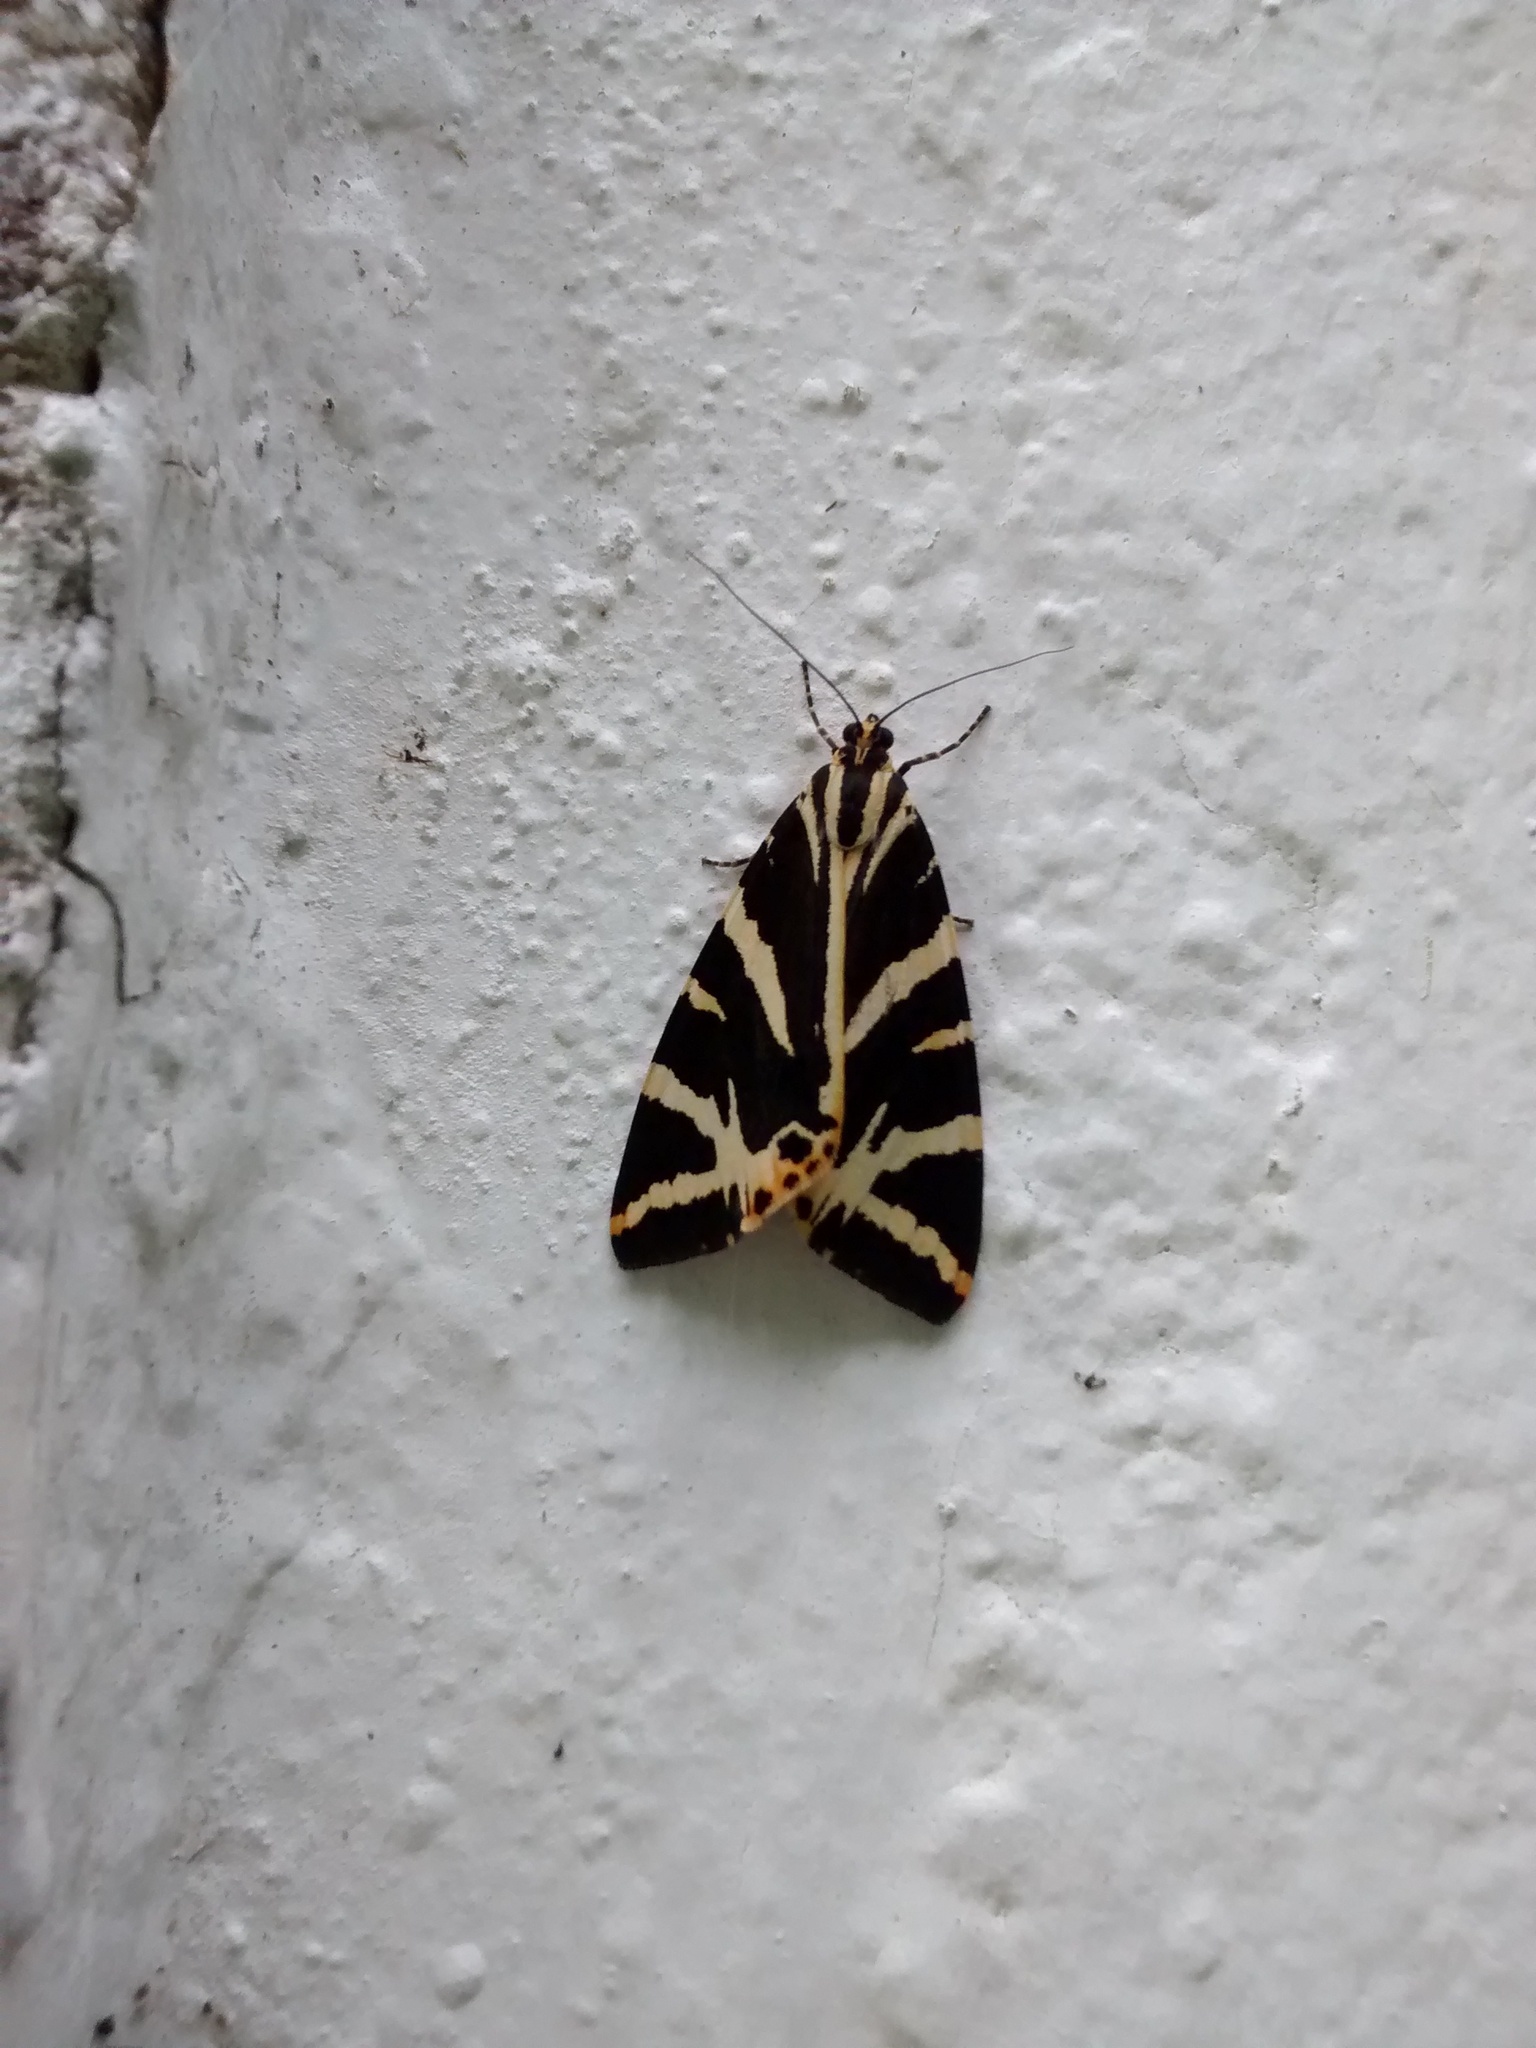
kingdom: Animalia
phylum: Arthropoda
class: Insecta
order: Lepidoptera
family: Erebidae
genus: Euplagia
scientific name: Euplagia quadripunctaria
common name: Jersey tiger
